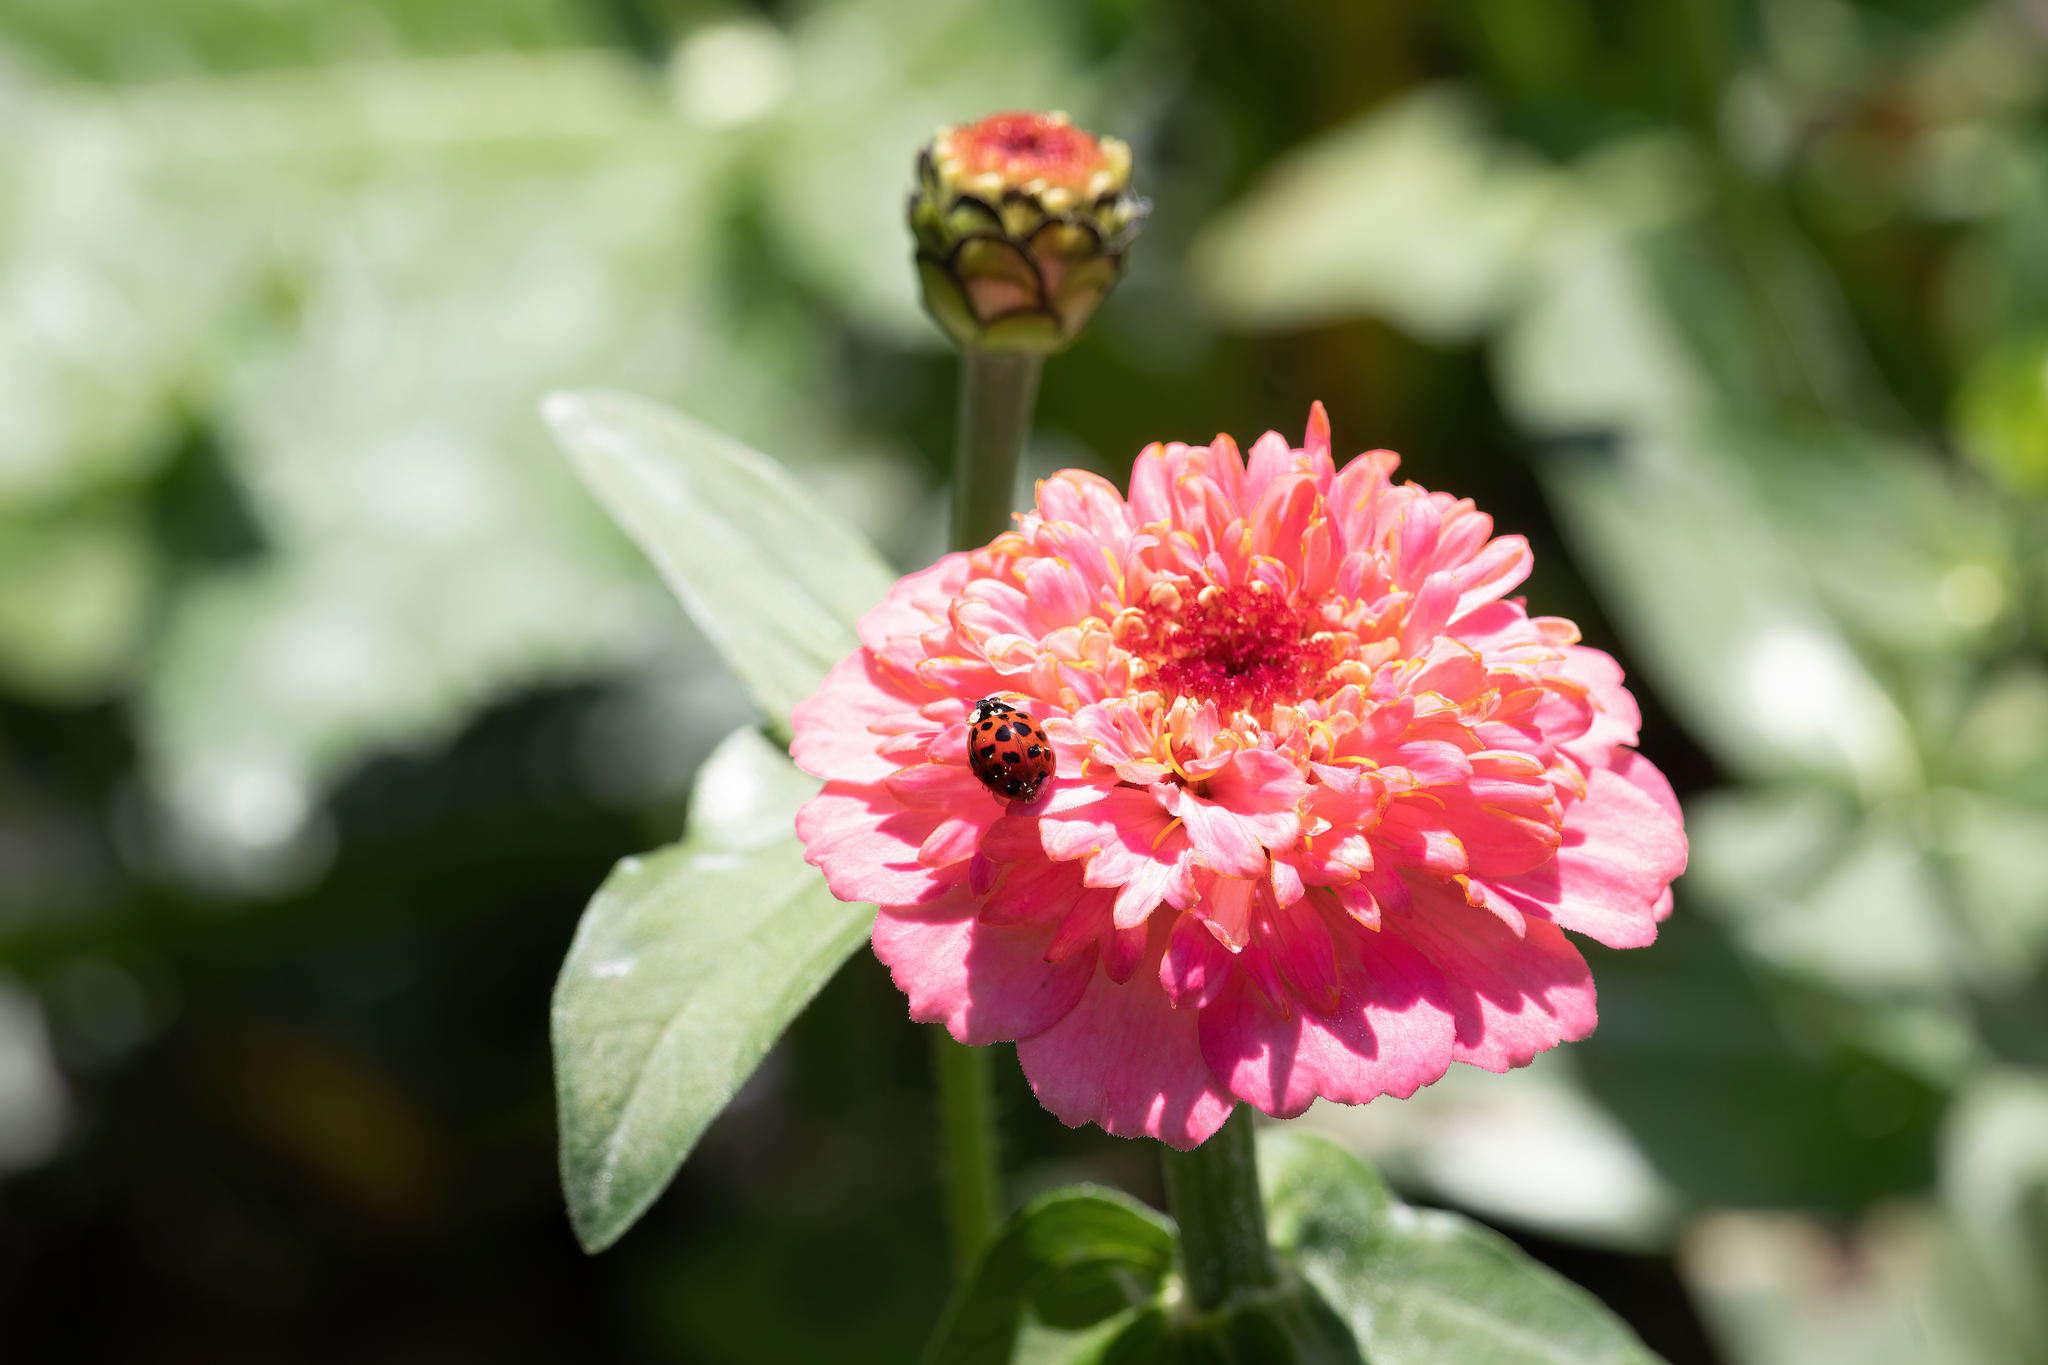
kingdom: Animalia
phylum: Arthropoda
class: Insecta
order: Coleoptera
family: Coccinellidae
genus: Harmonia
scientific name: Harmonia axyridis
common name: Harlequin ladybird
